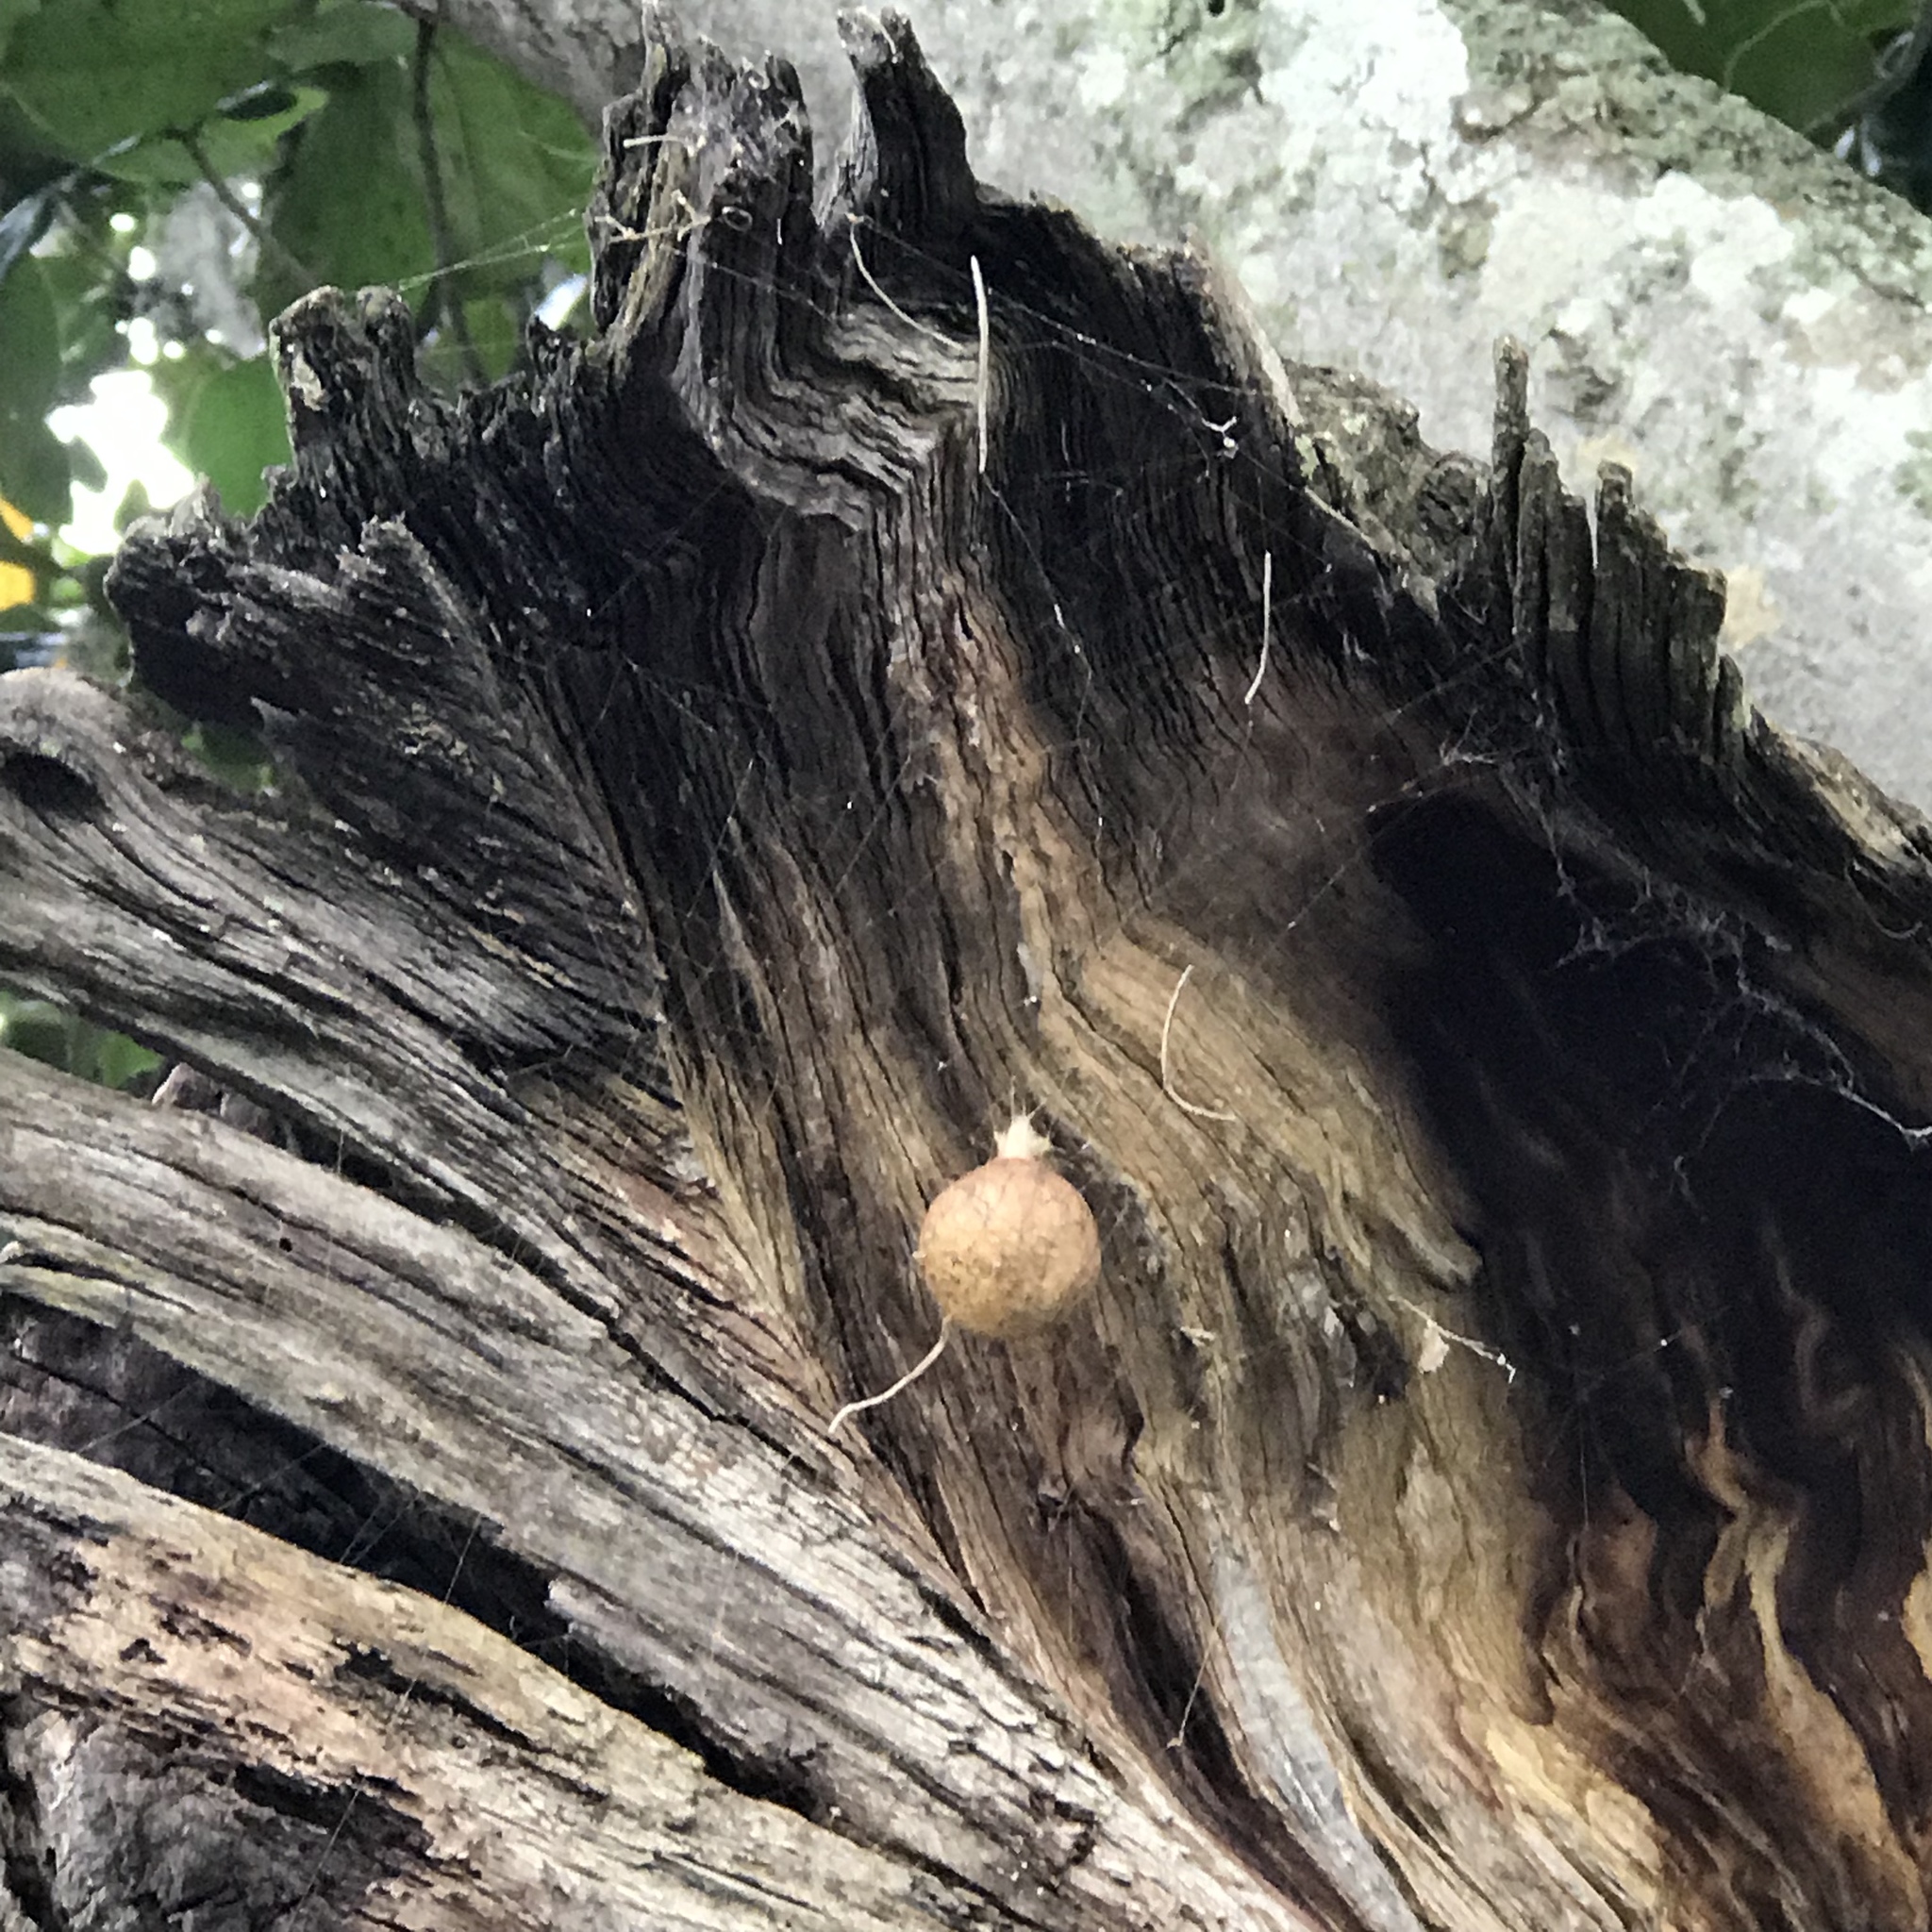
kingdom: Animalia
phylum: Arthropoda
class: Arachnida
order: Araneae
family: Araneidae
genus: Argiope
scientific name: Argiope aurantia
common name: Orb weavers
